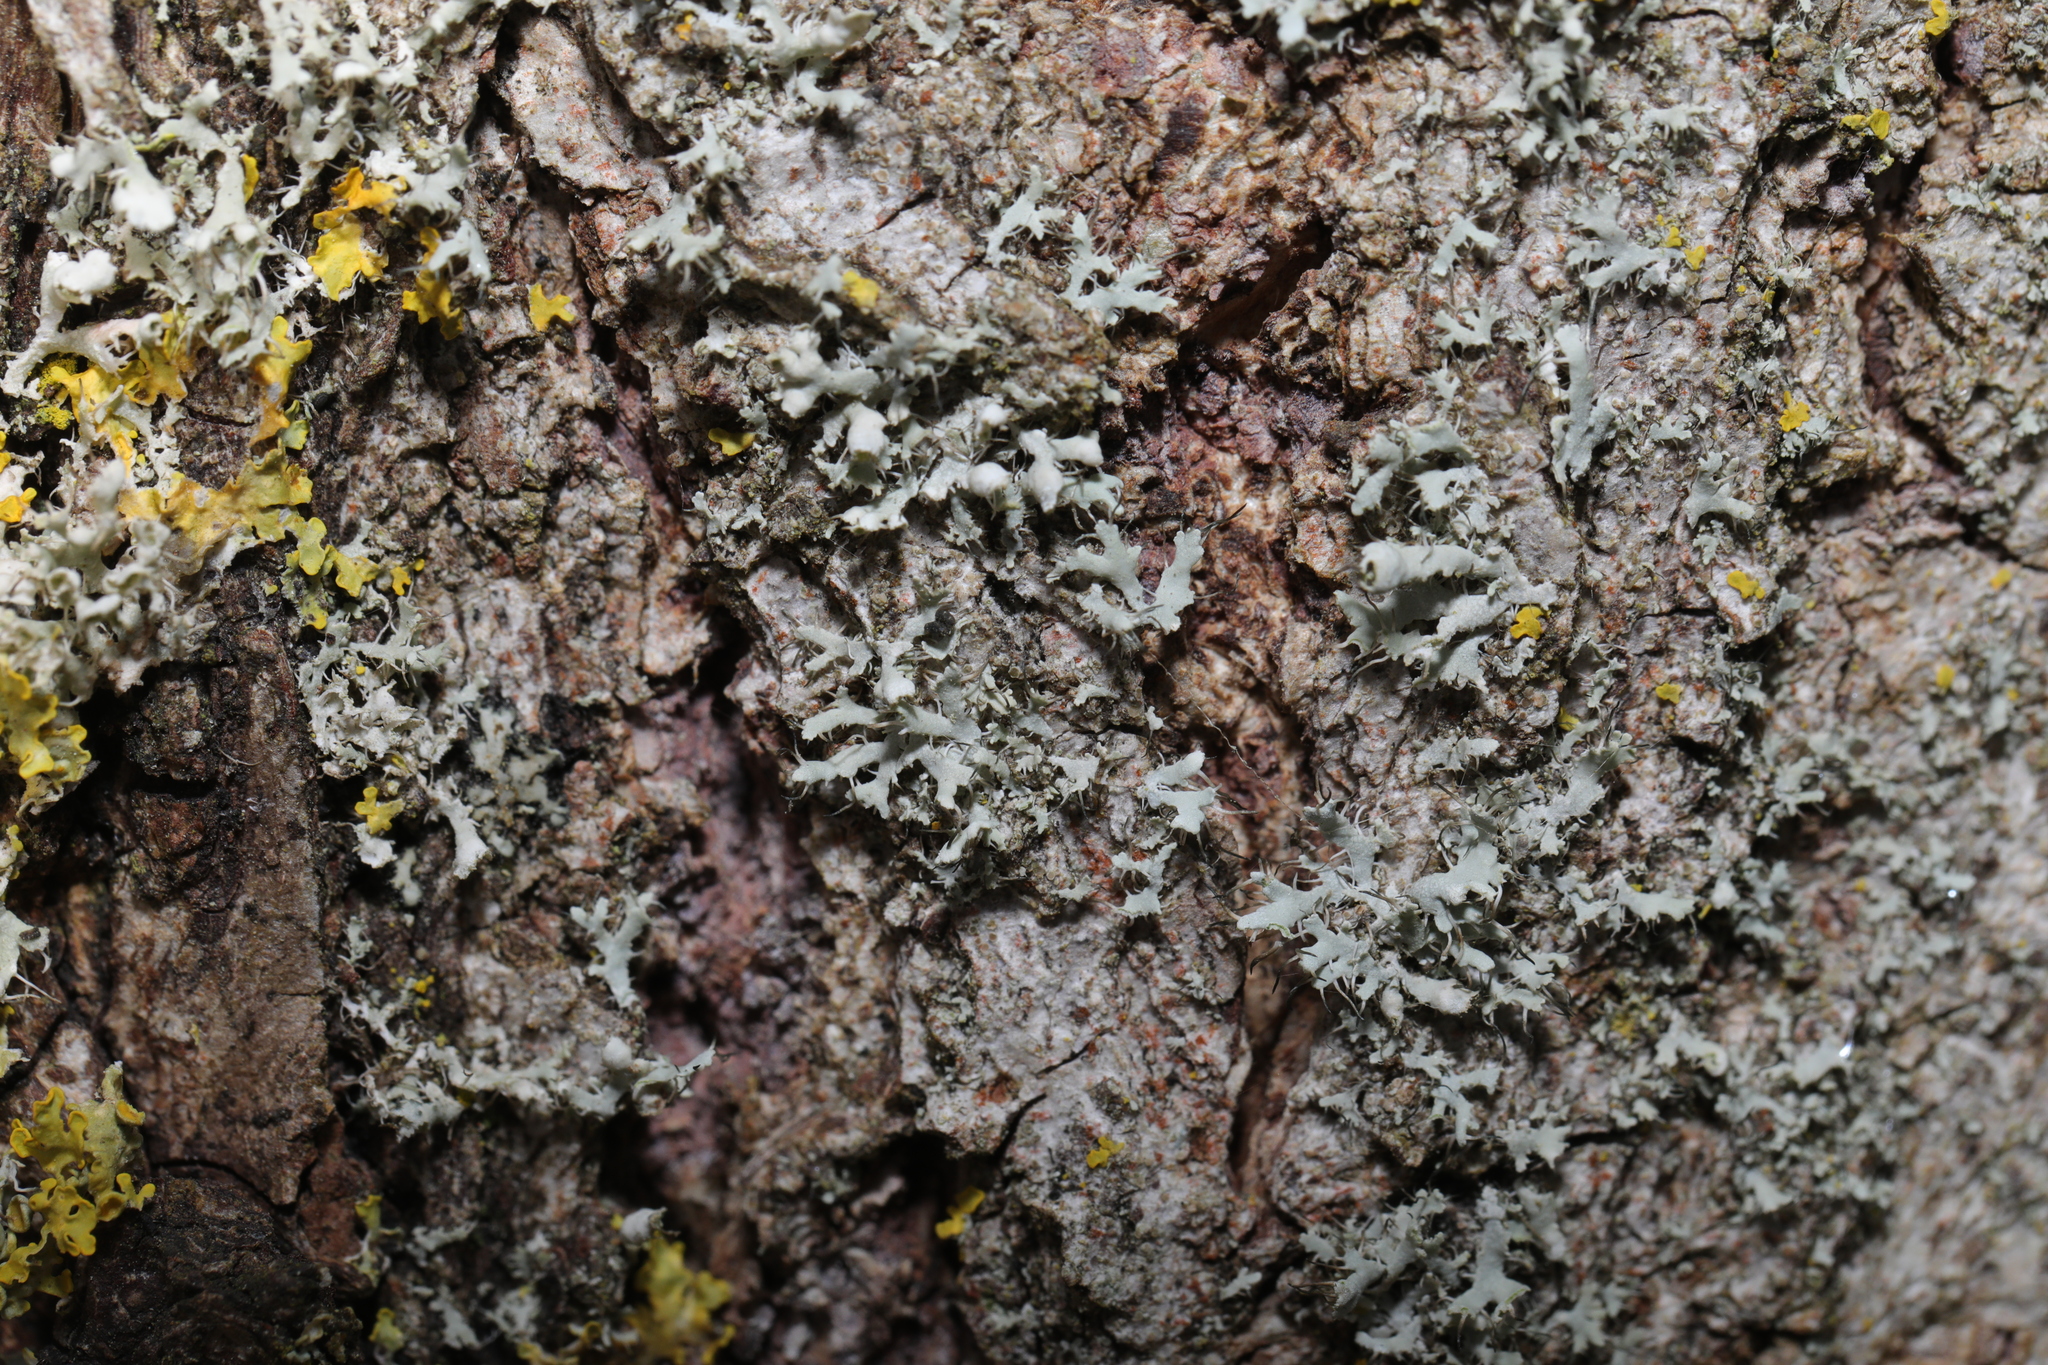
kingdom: Fungi
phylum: Ascomycota
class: Lecanoromycetes
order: Caliciales
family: Physciaceae
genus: Physcia
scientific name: Physcia adscendens
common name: Hooded rosette lichen
